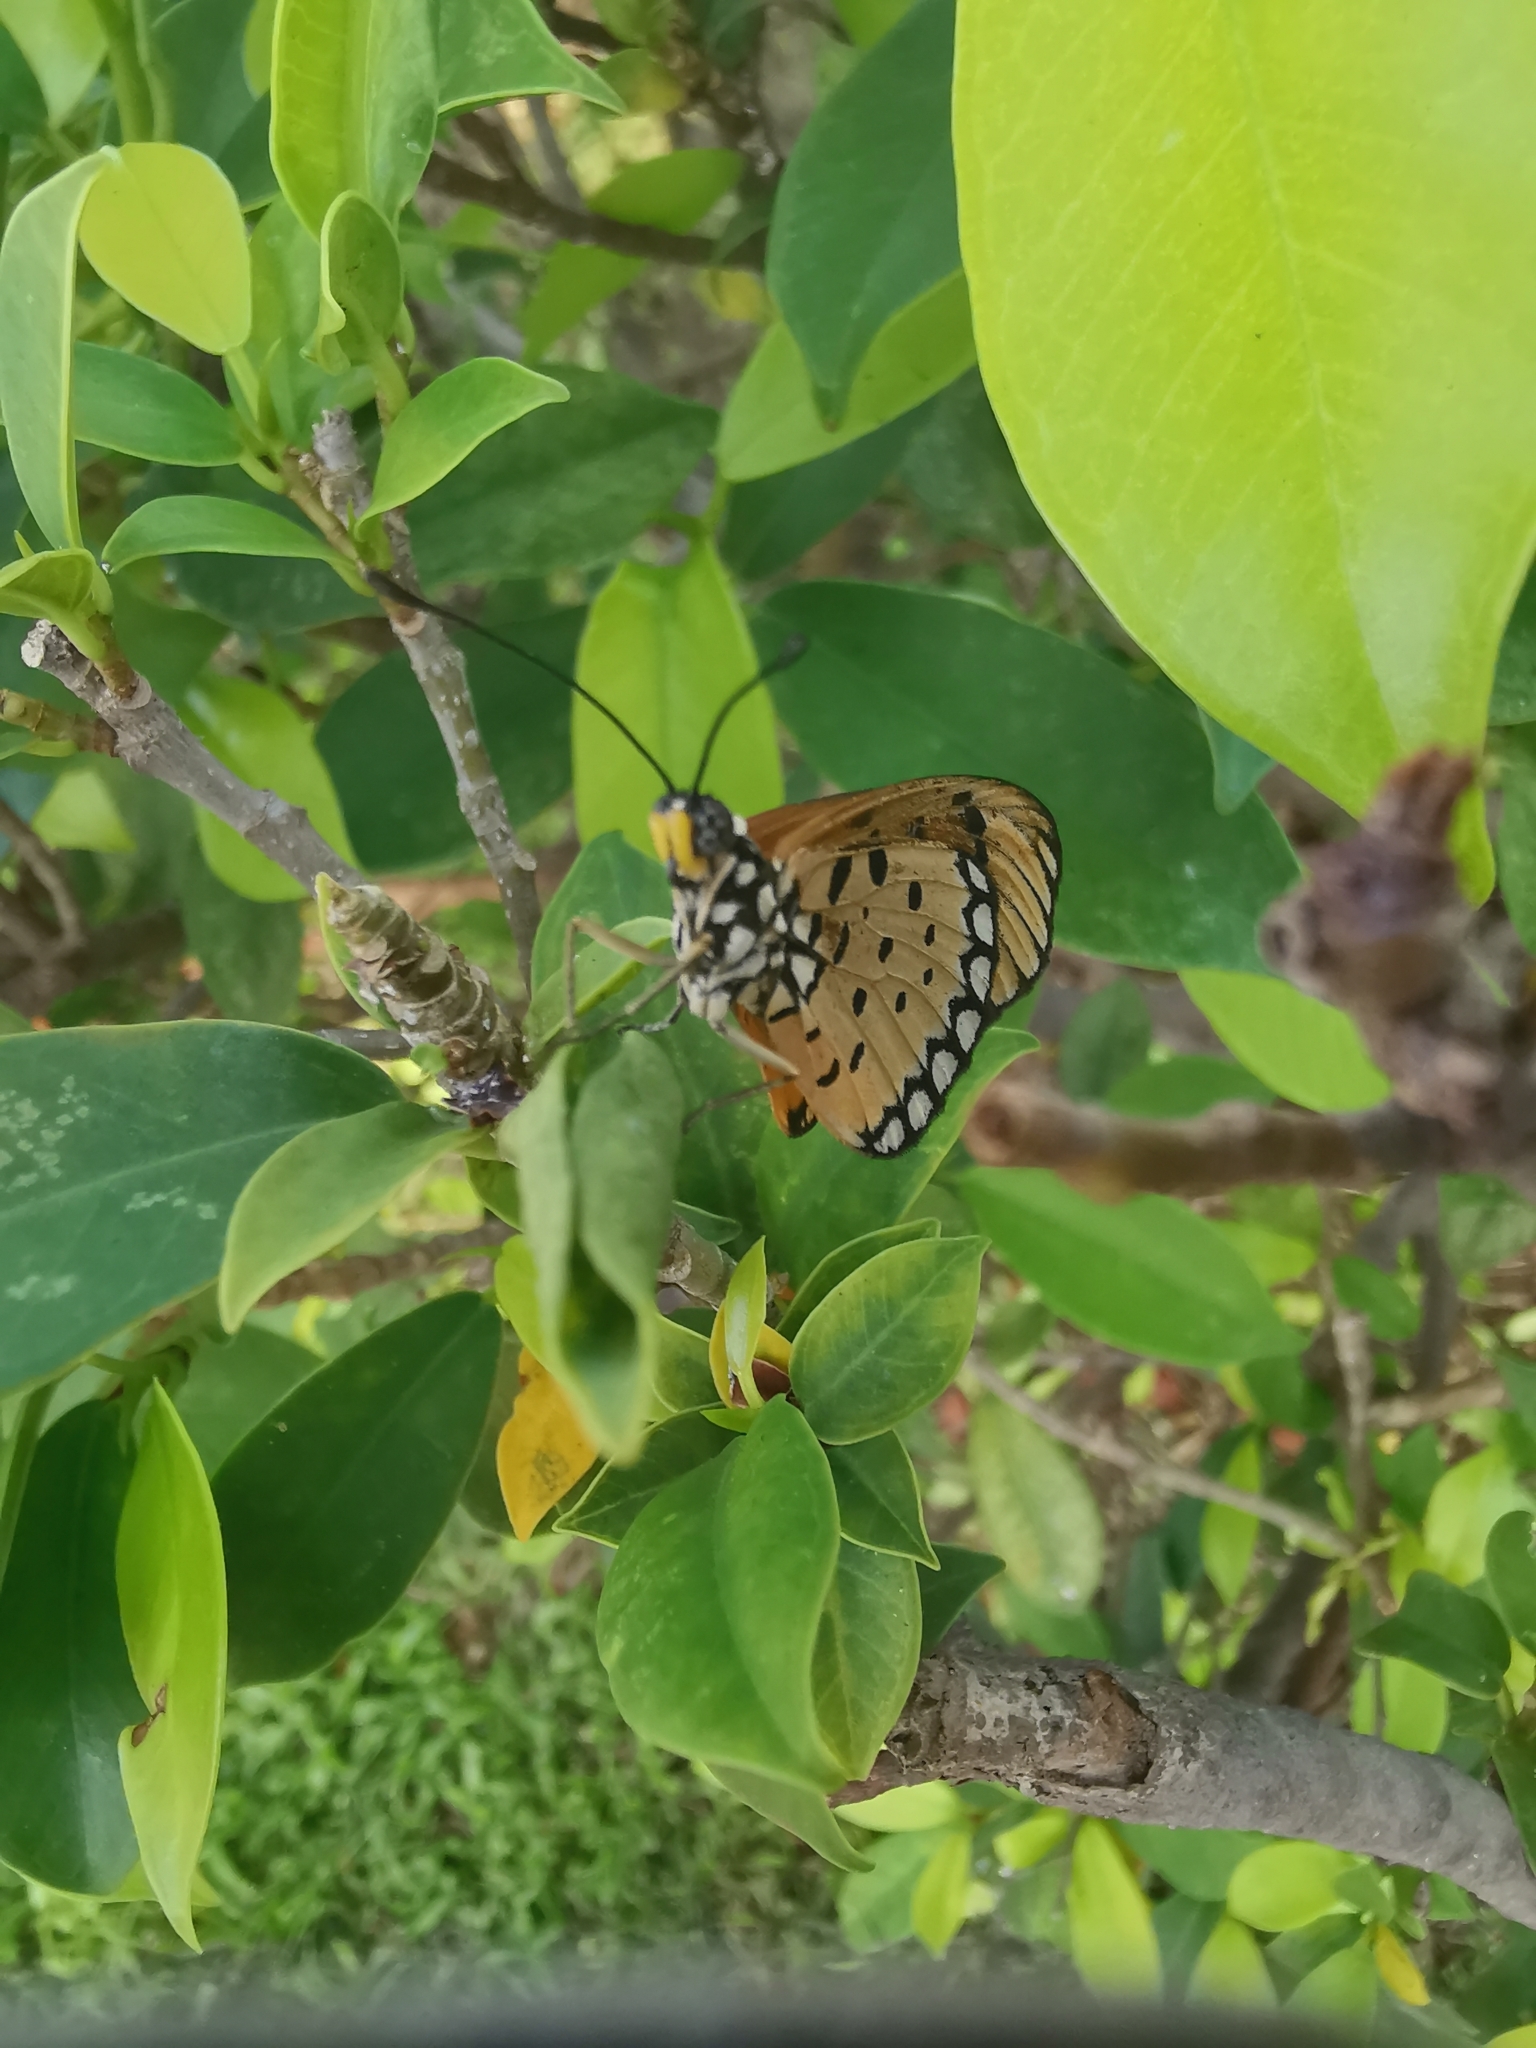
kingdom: Animalia
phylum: Arthropoda
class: Insecta
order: Lepidoptera
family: Nymphalidae
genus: Acraea
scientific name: Acraea terpsicore
